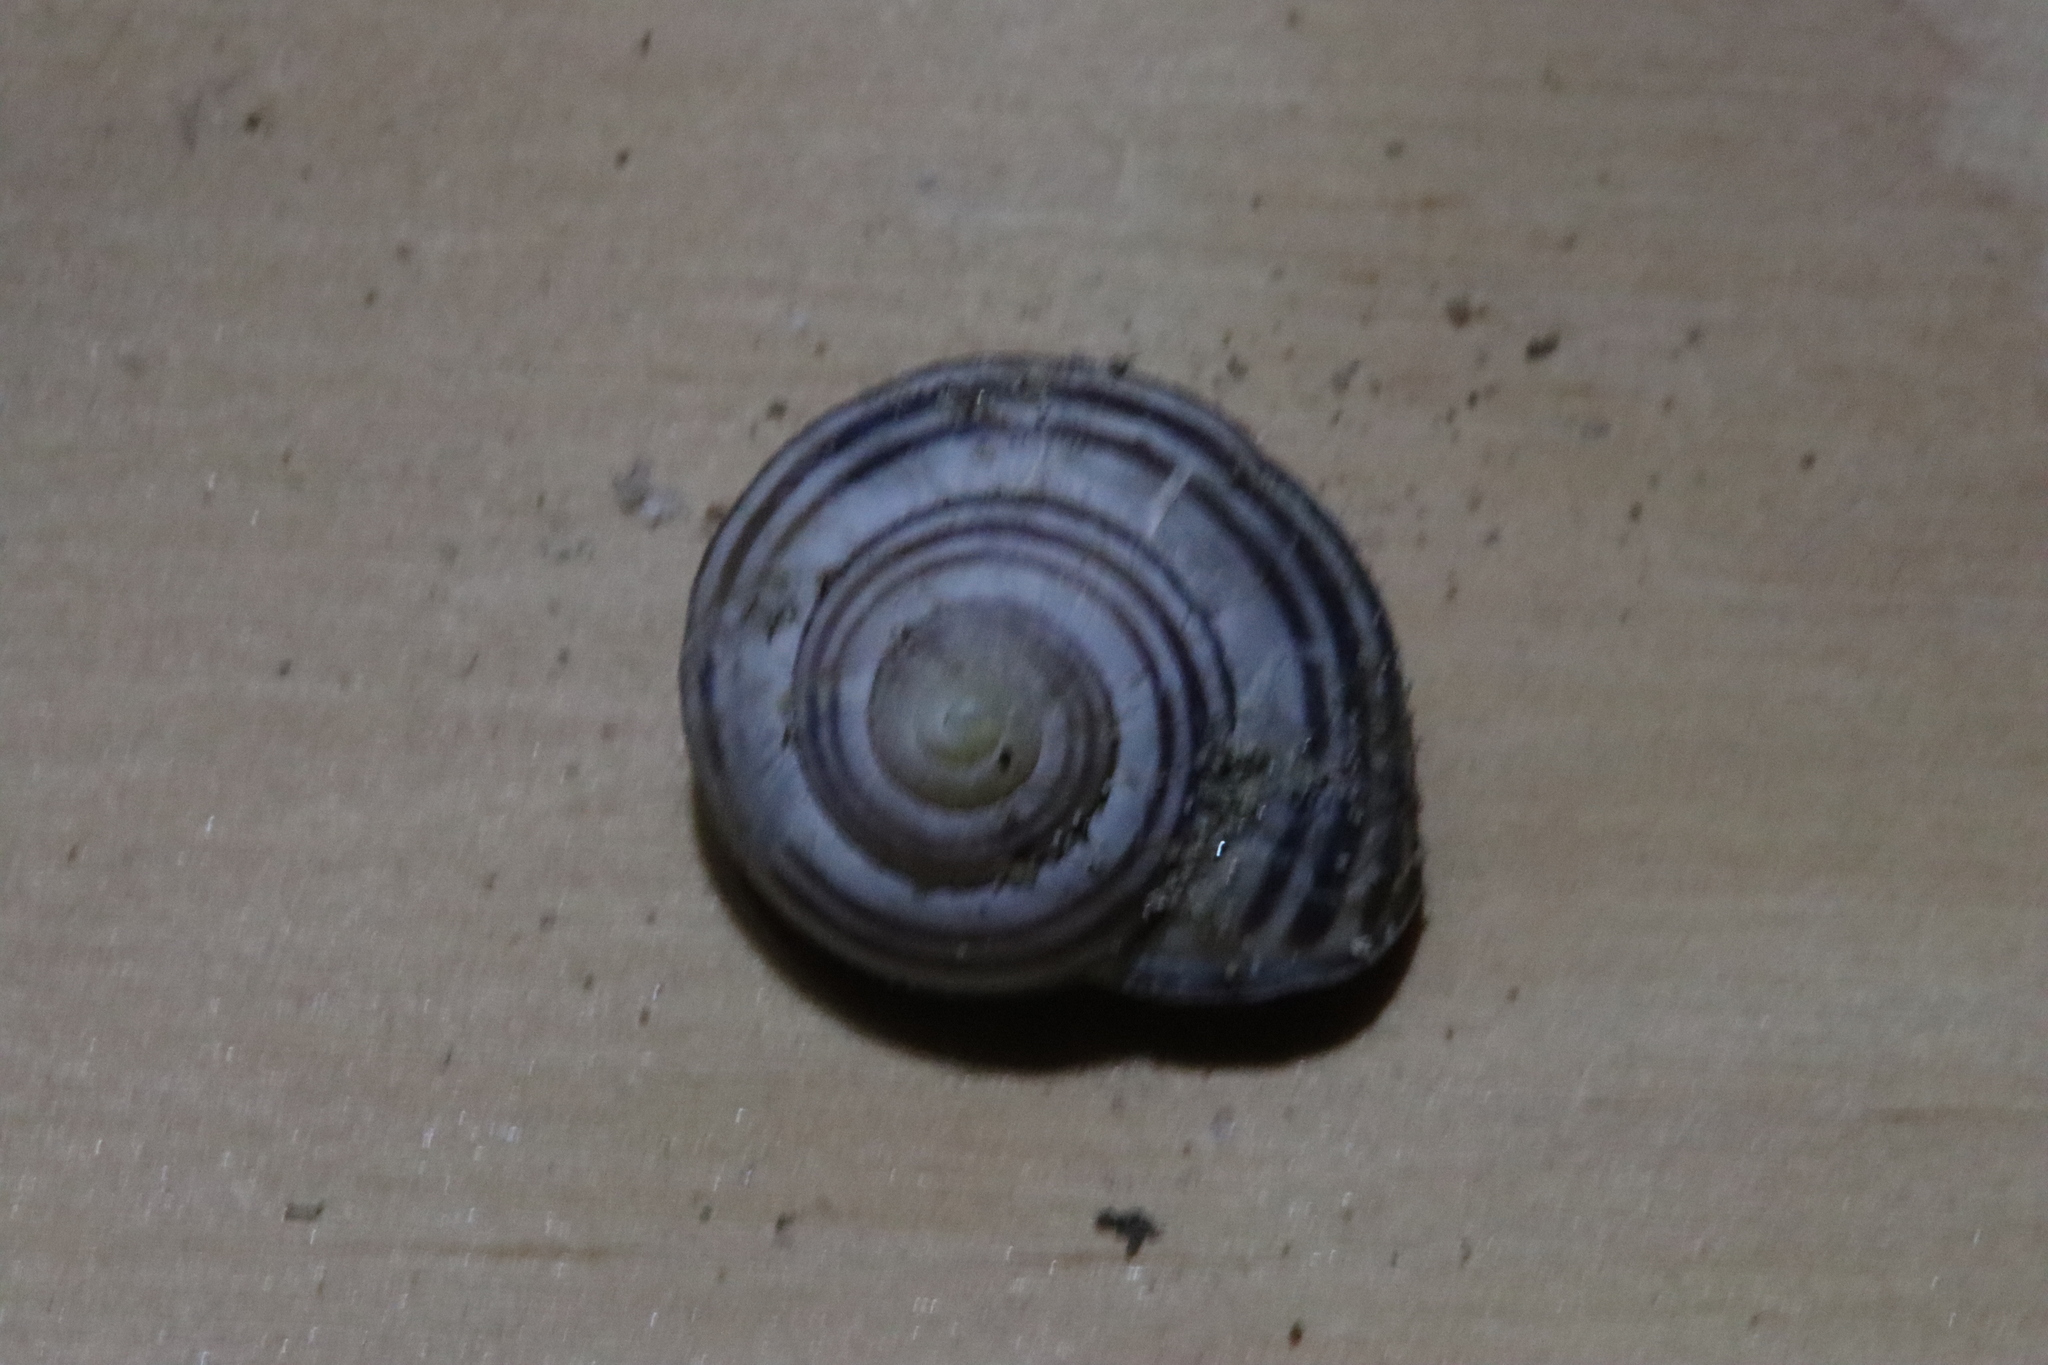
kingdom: Animalia
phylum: Mollusca
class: Gastropoda
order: Stylommatophora
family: Helicidae
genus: Cepaea
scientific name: Cepaea nemoralis
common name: Grovesnail
